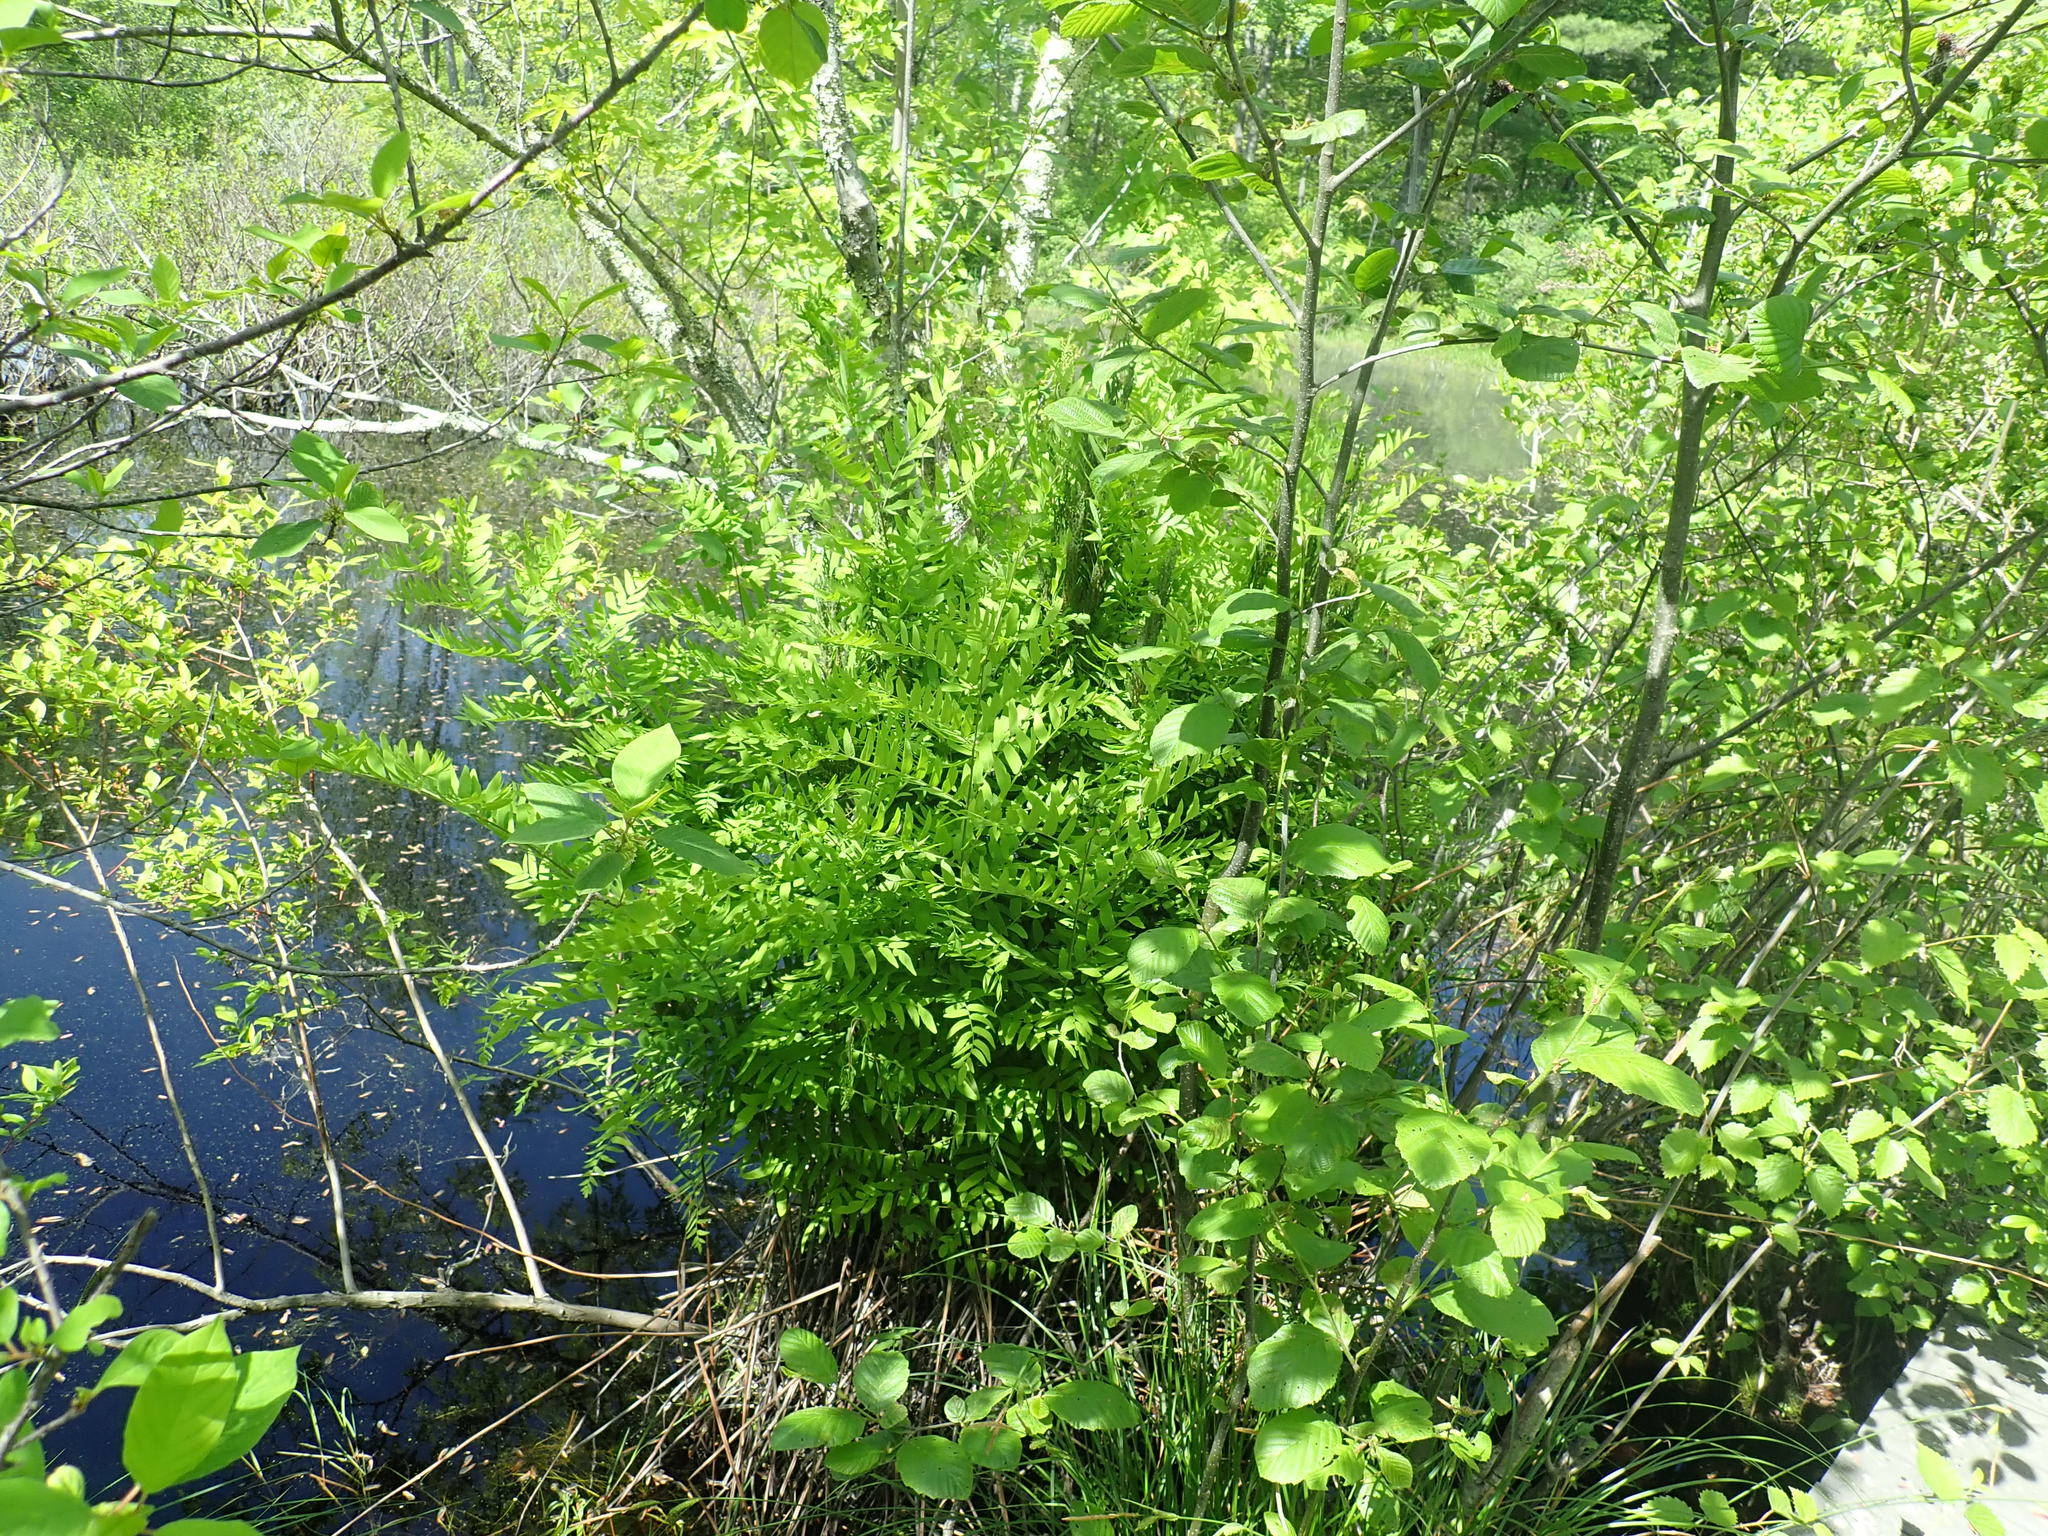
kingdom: Plantae
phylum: Tracheophyta
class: Polypodiopsida
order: Osmundales
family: Osmundaceae
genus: Osmunda
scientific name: Osmunda spectabilis
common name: American royal fern
